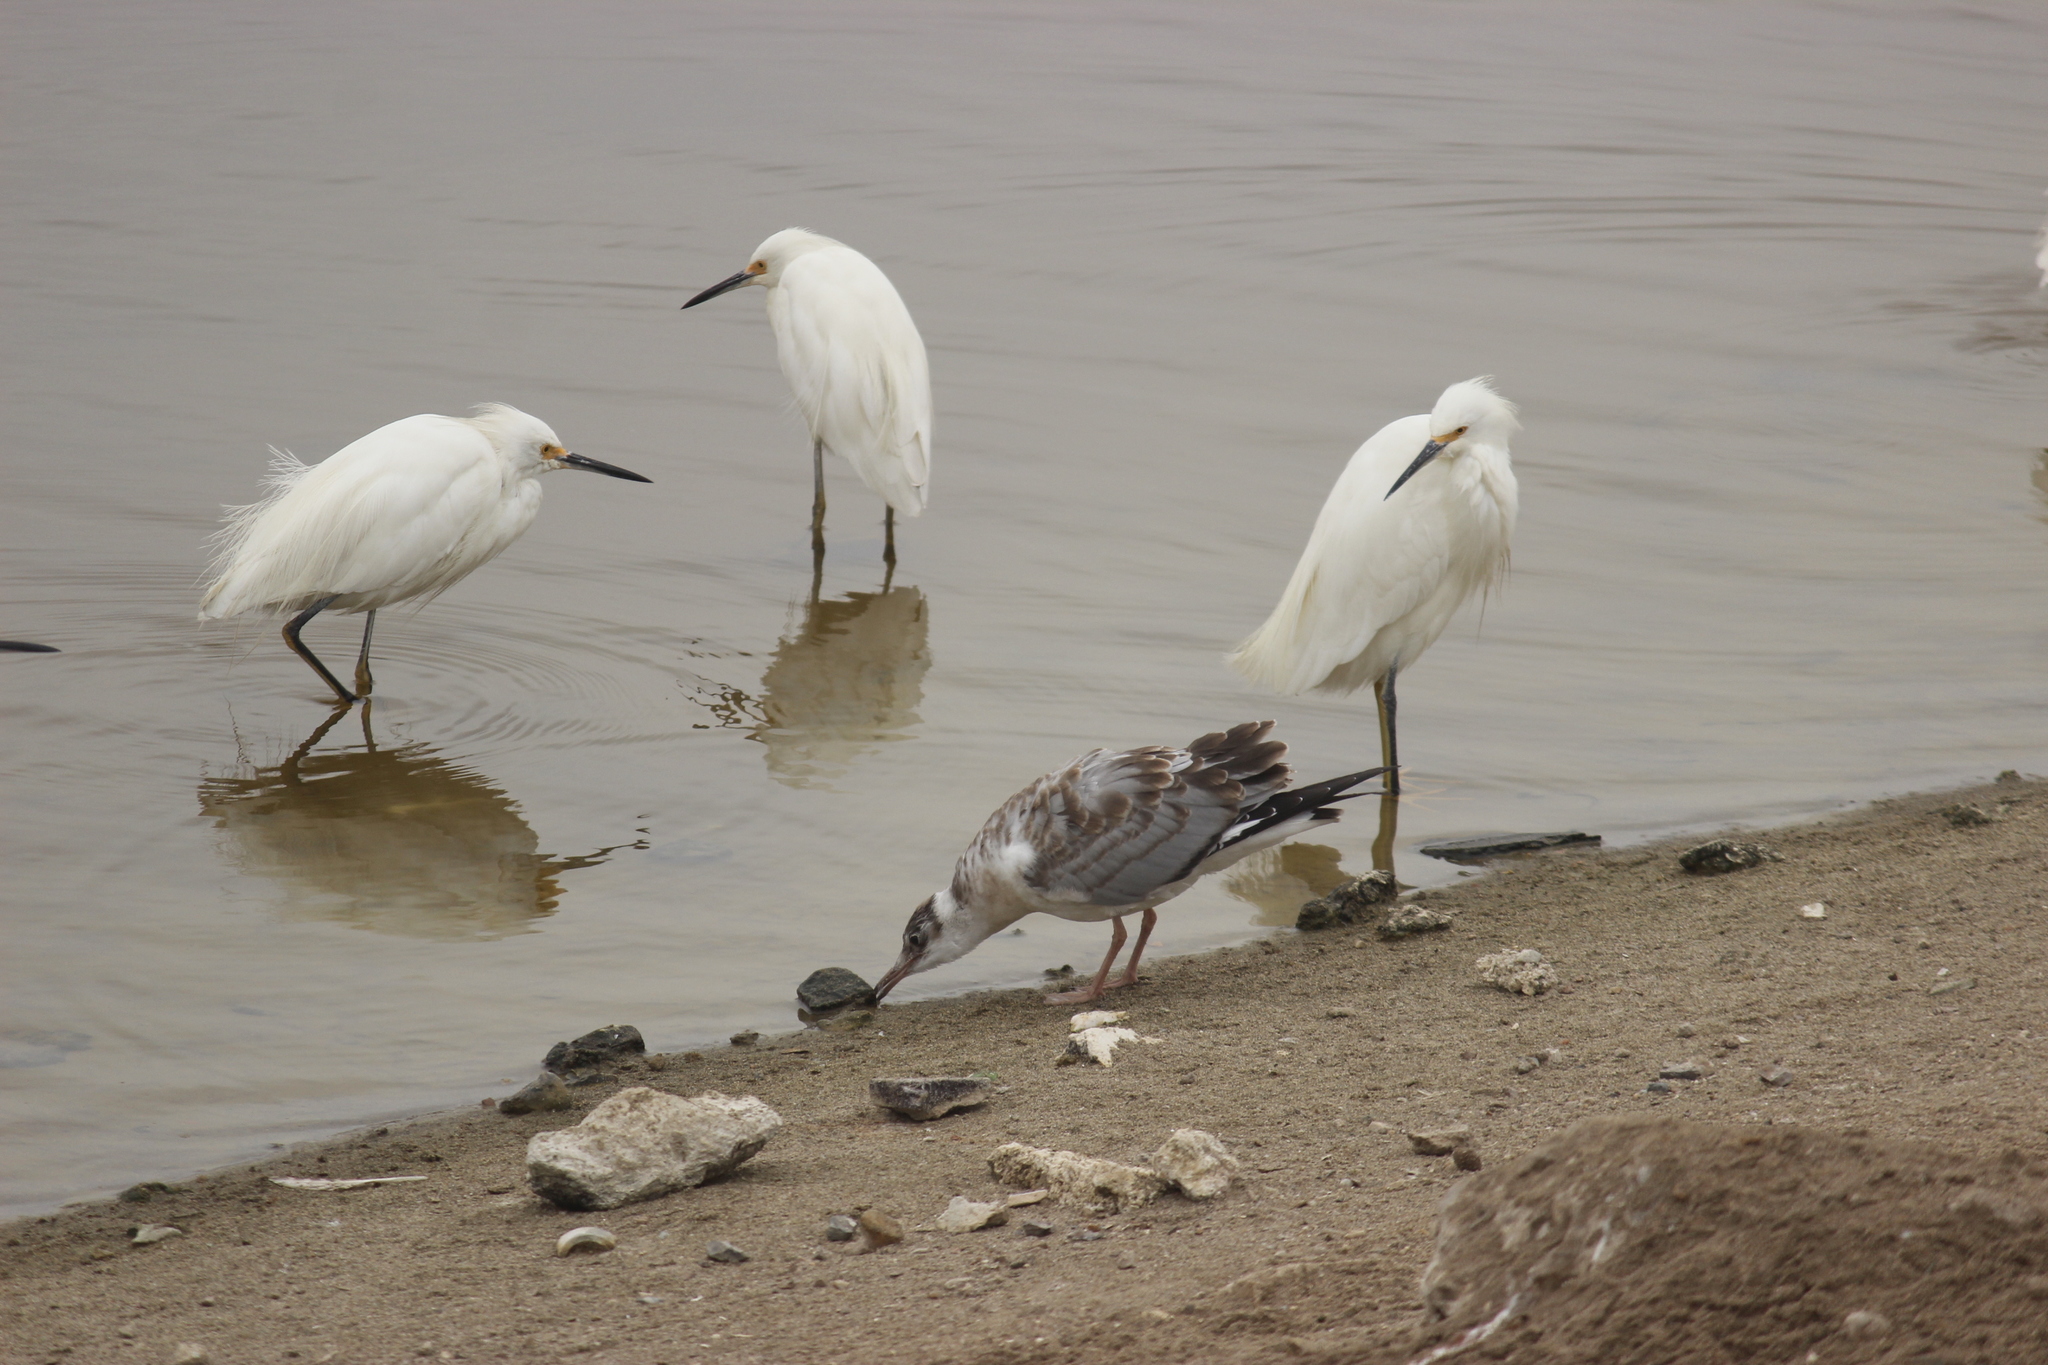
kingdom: Animalia
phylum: Chordata
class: Aves
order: Charadriiformes
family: Laridae
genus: Chroicocephalus
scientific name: Chroicocephalus cirrocephalus
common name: Grey-headed gull
